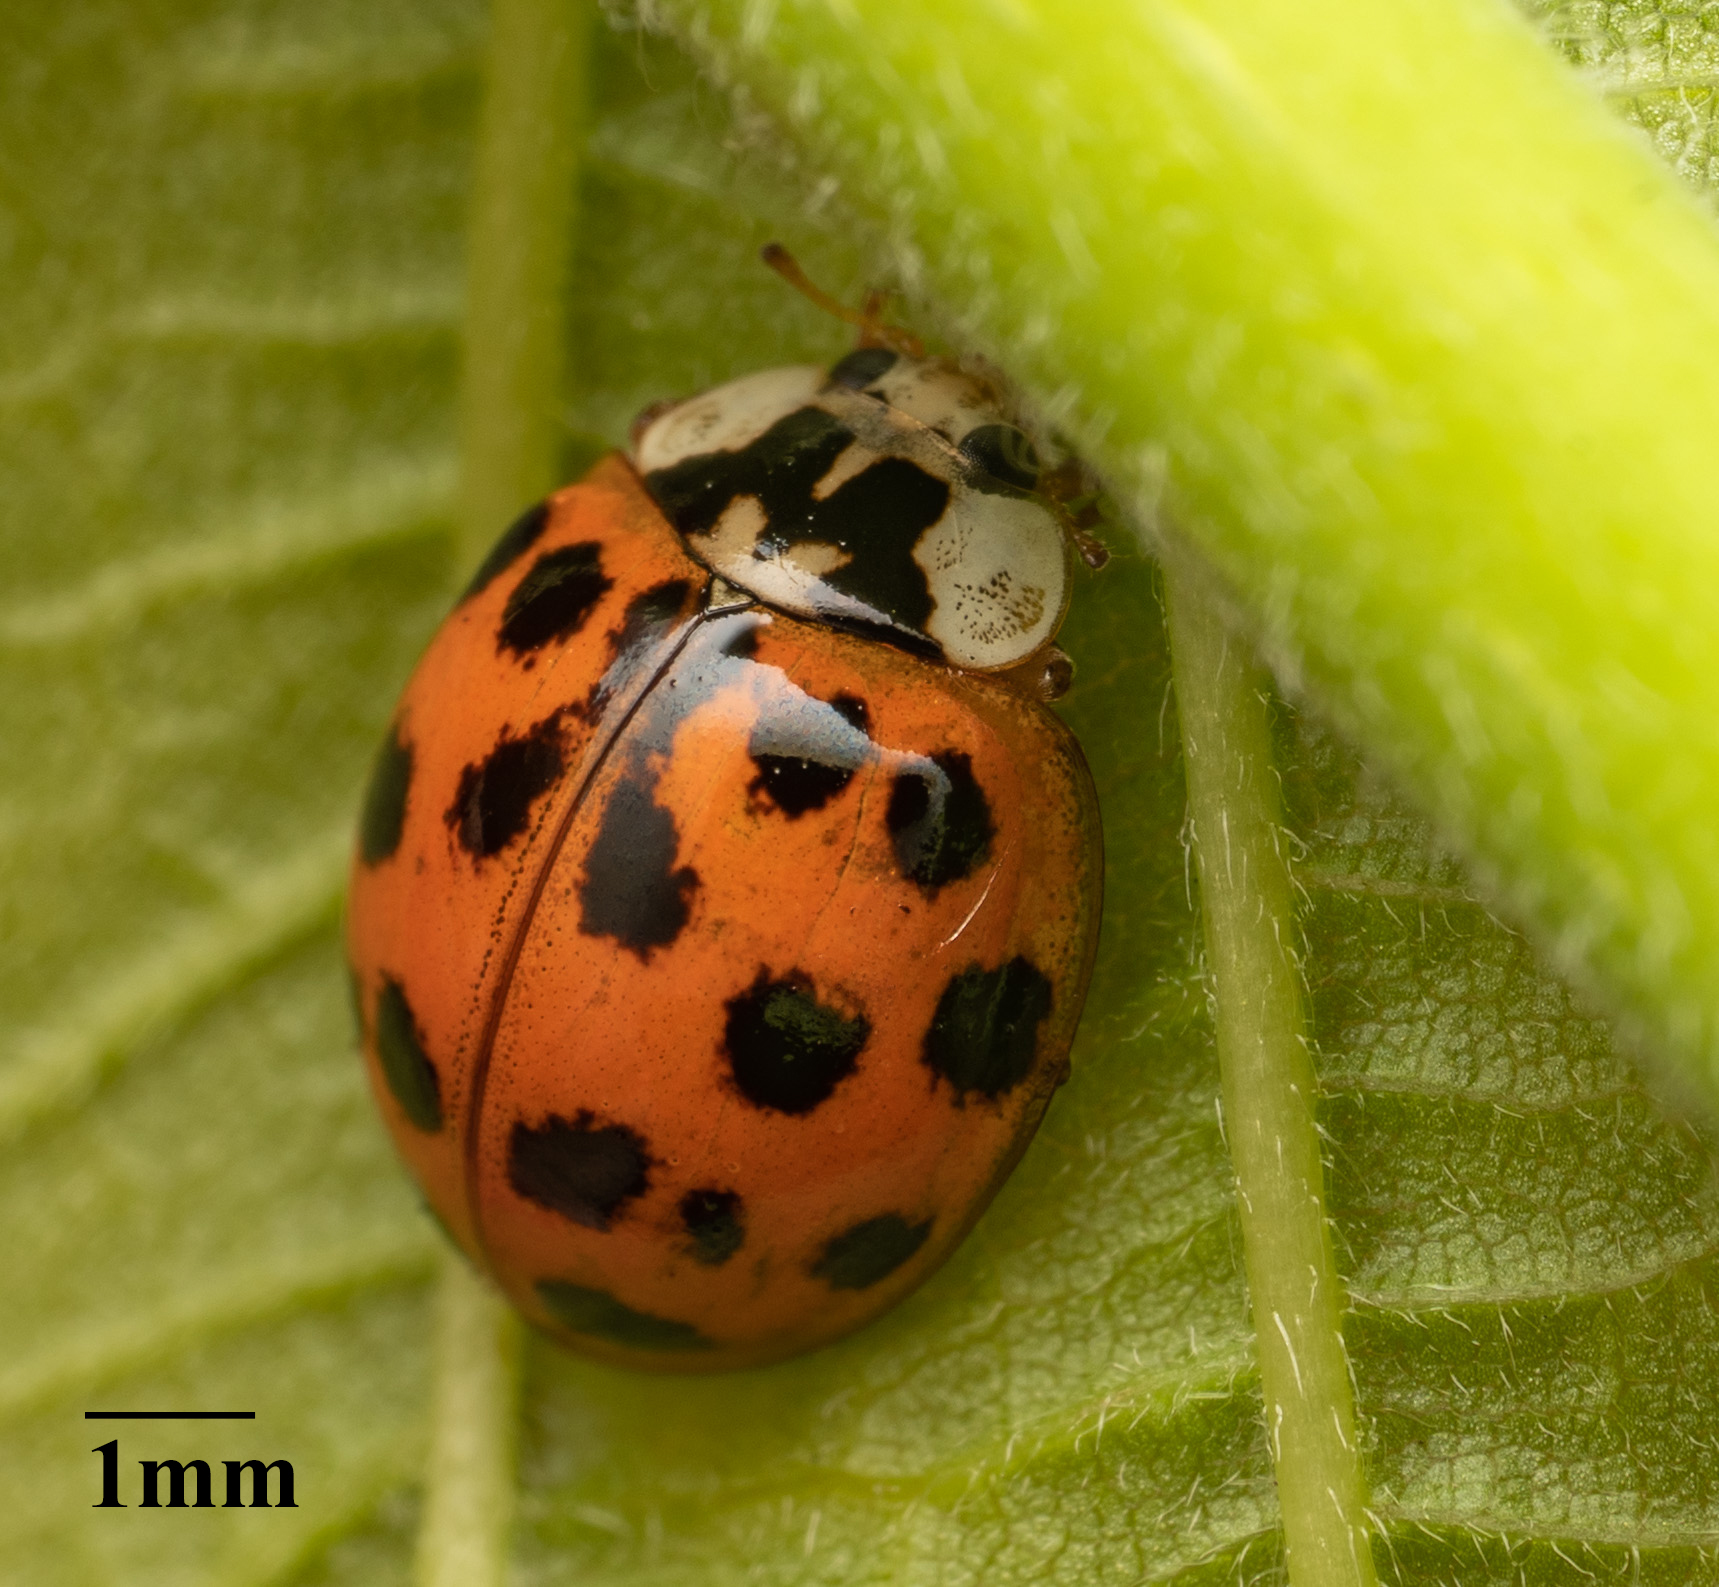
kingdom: Animalia
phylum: Arthropoda
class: Insecta
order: Coleoptera
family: Coccinellidae
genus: Harmonia
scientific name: Harmonia axyridis
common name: Harlequin ladybird
